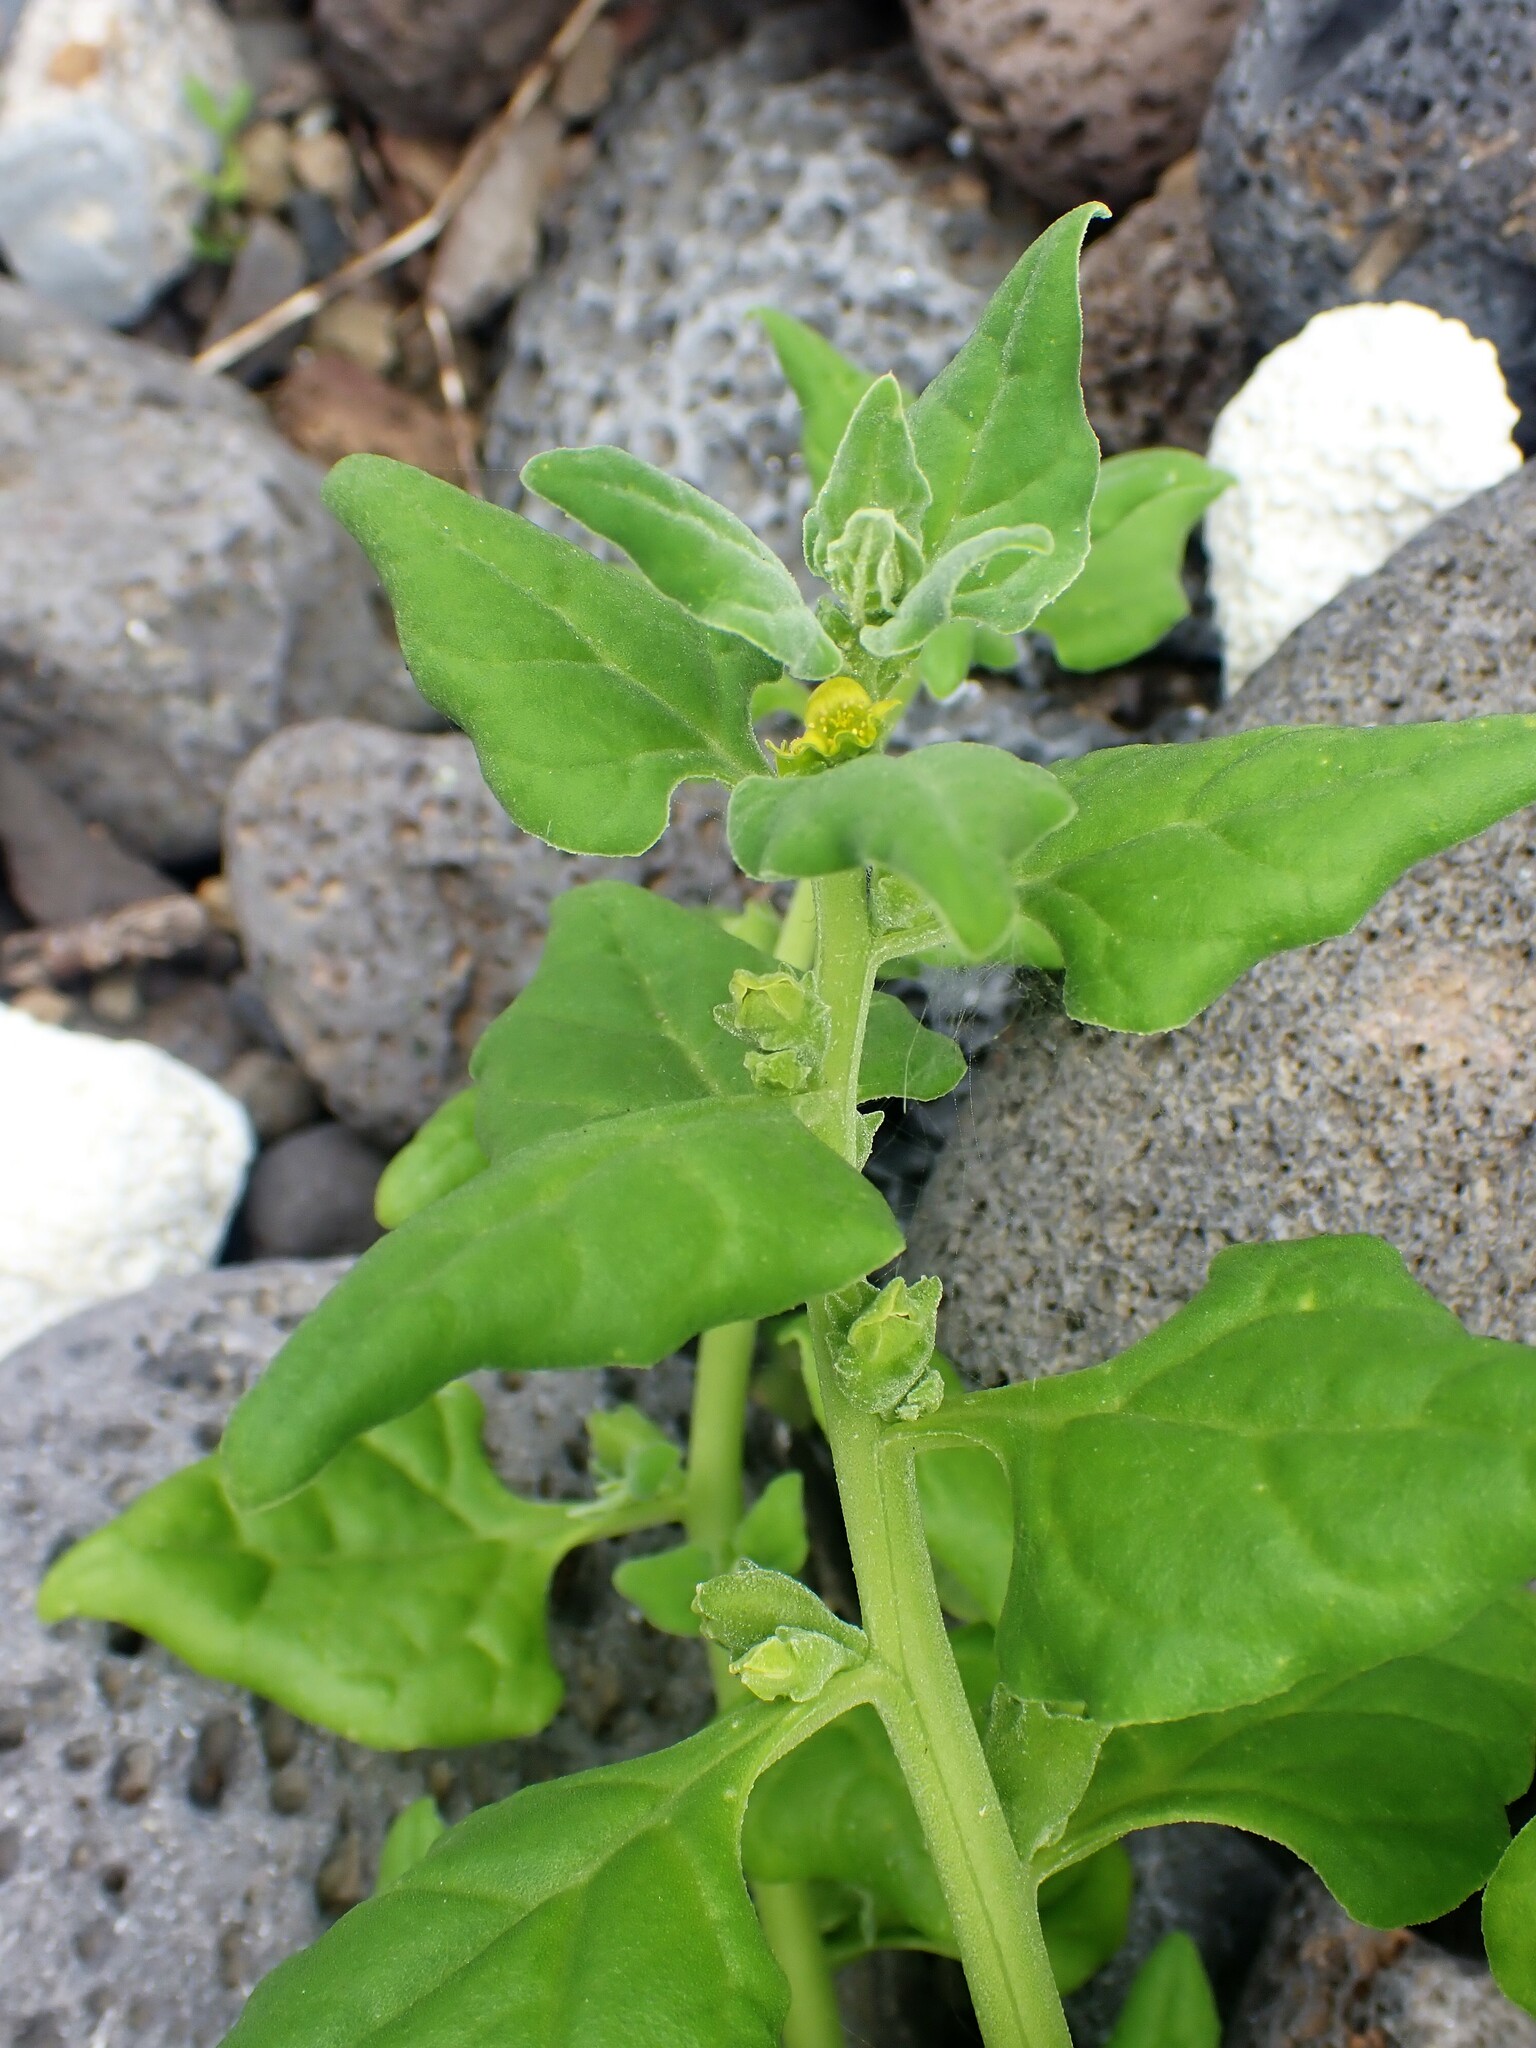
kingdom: Plantae
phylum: Tracheophyta
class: Magnoliopsida
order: Caryophyllales
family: Aizoaceae
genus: Tetragonia
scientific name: Tetragonia tetragonoides
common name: New zealand-spinach
